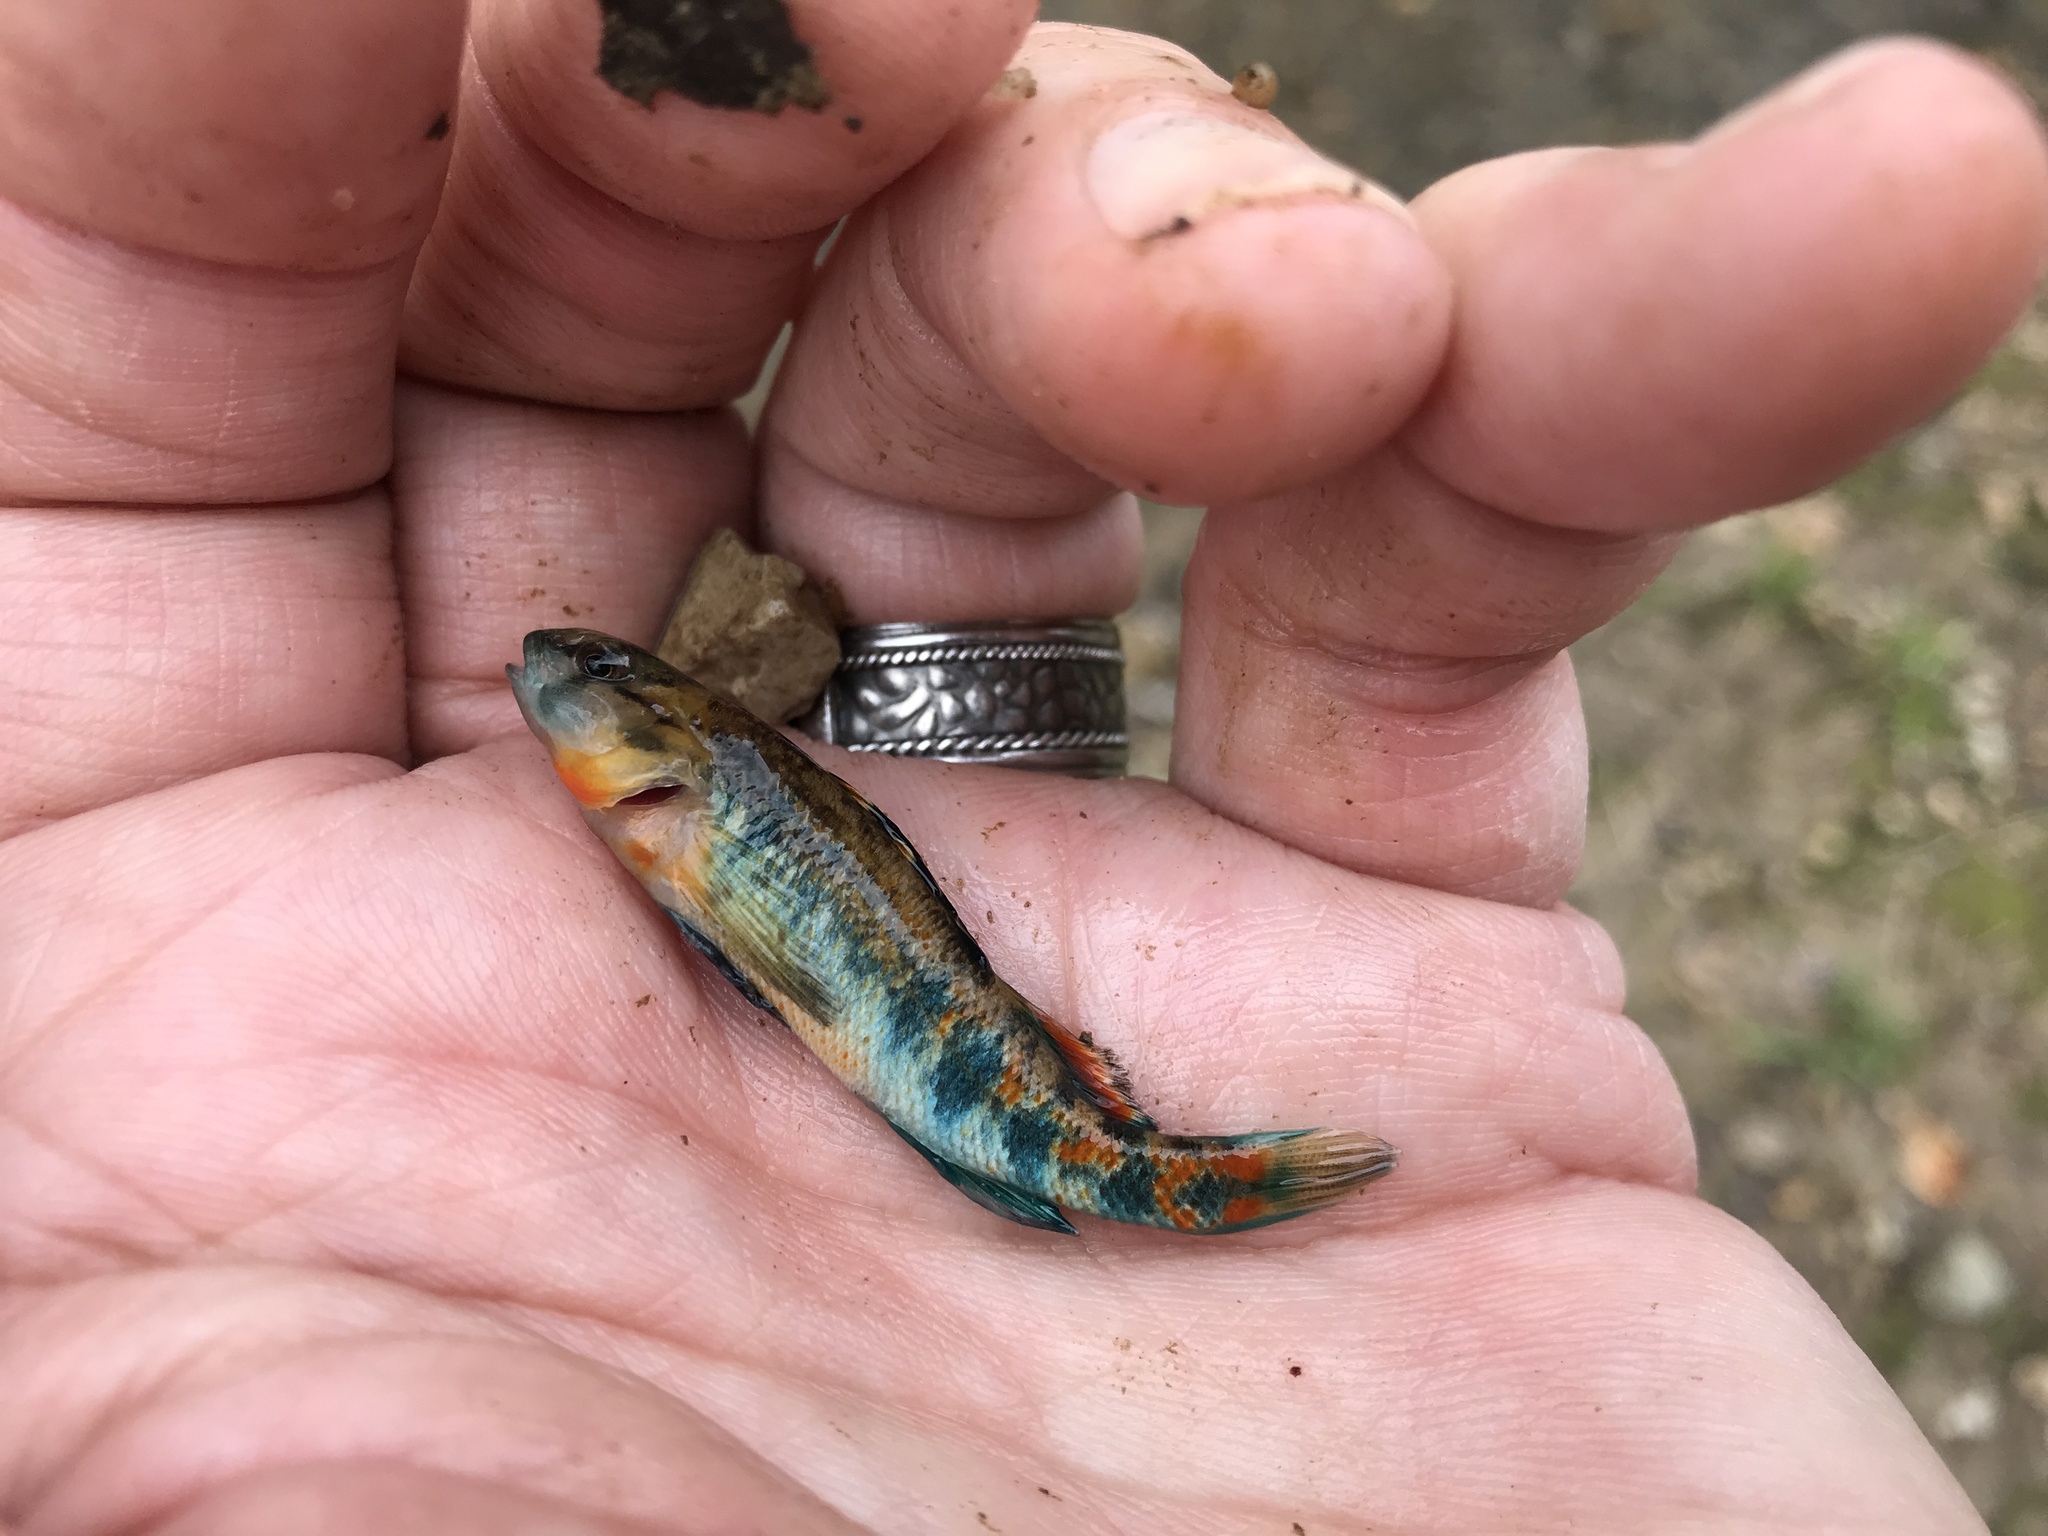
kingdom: Animalia
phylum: Chordata
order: Perciformes
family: Percidae
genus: Etheostoma
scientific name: Etheostoma spectabile
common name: Orangethroat darter
